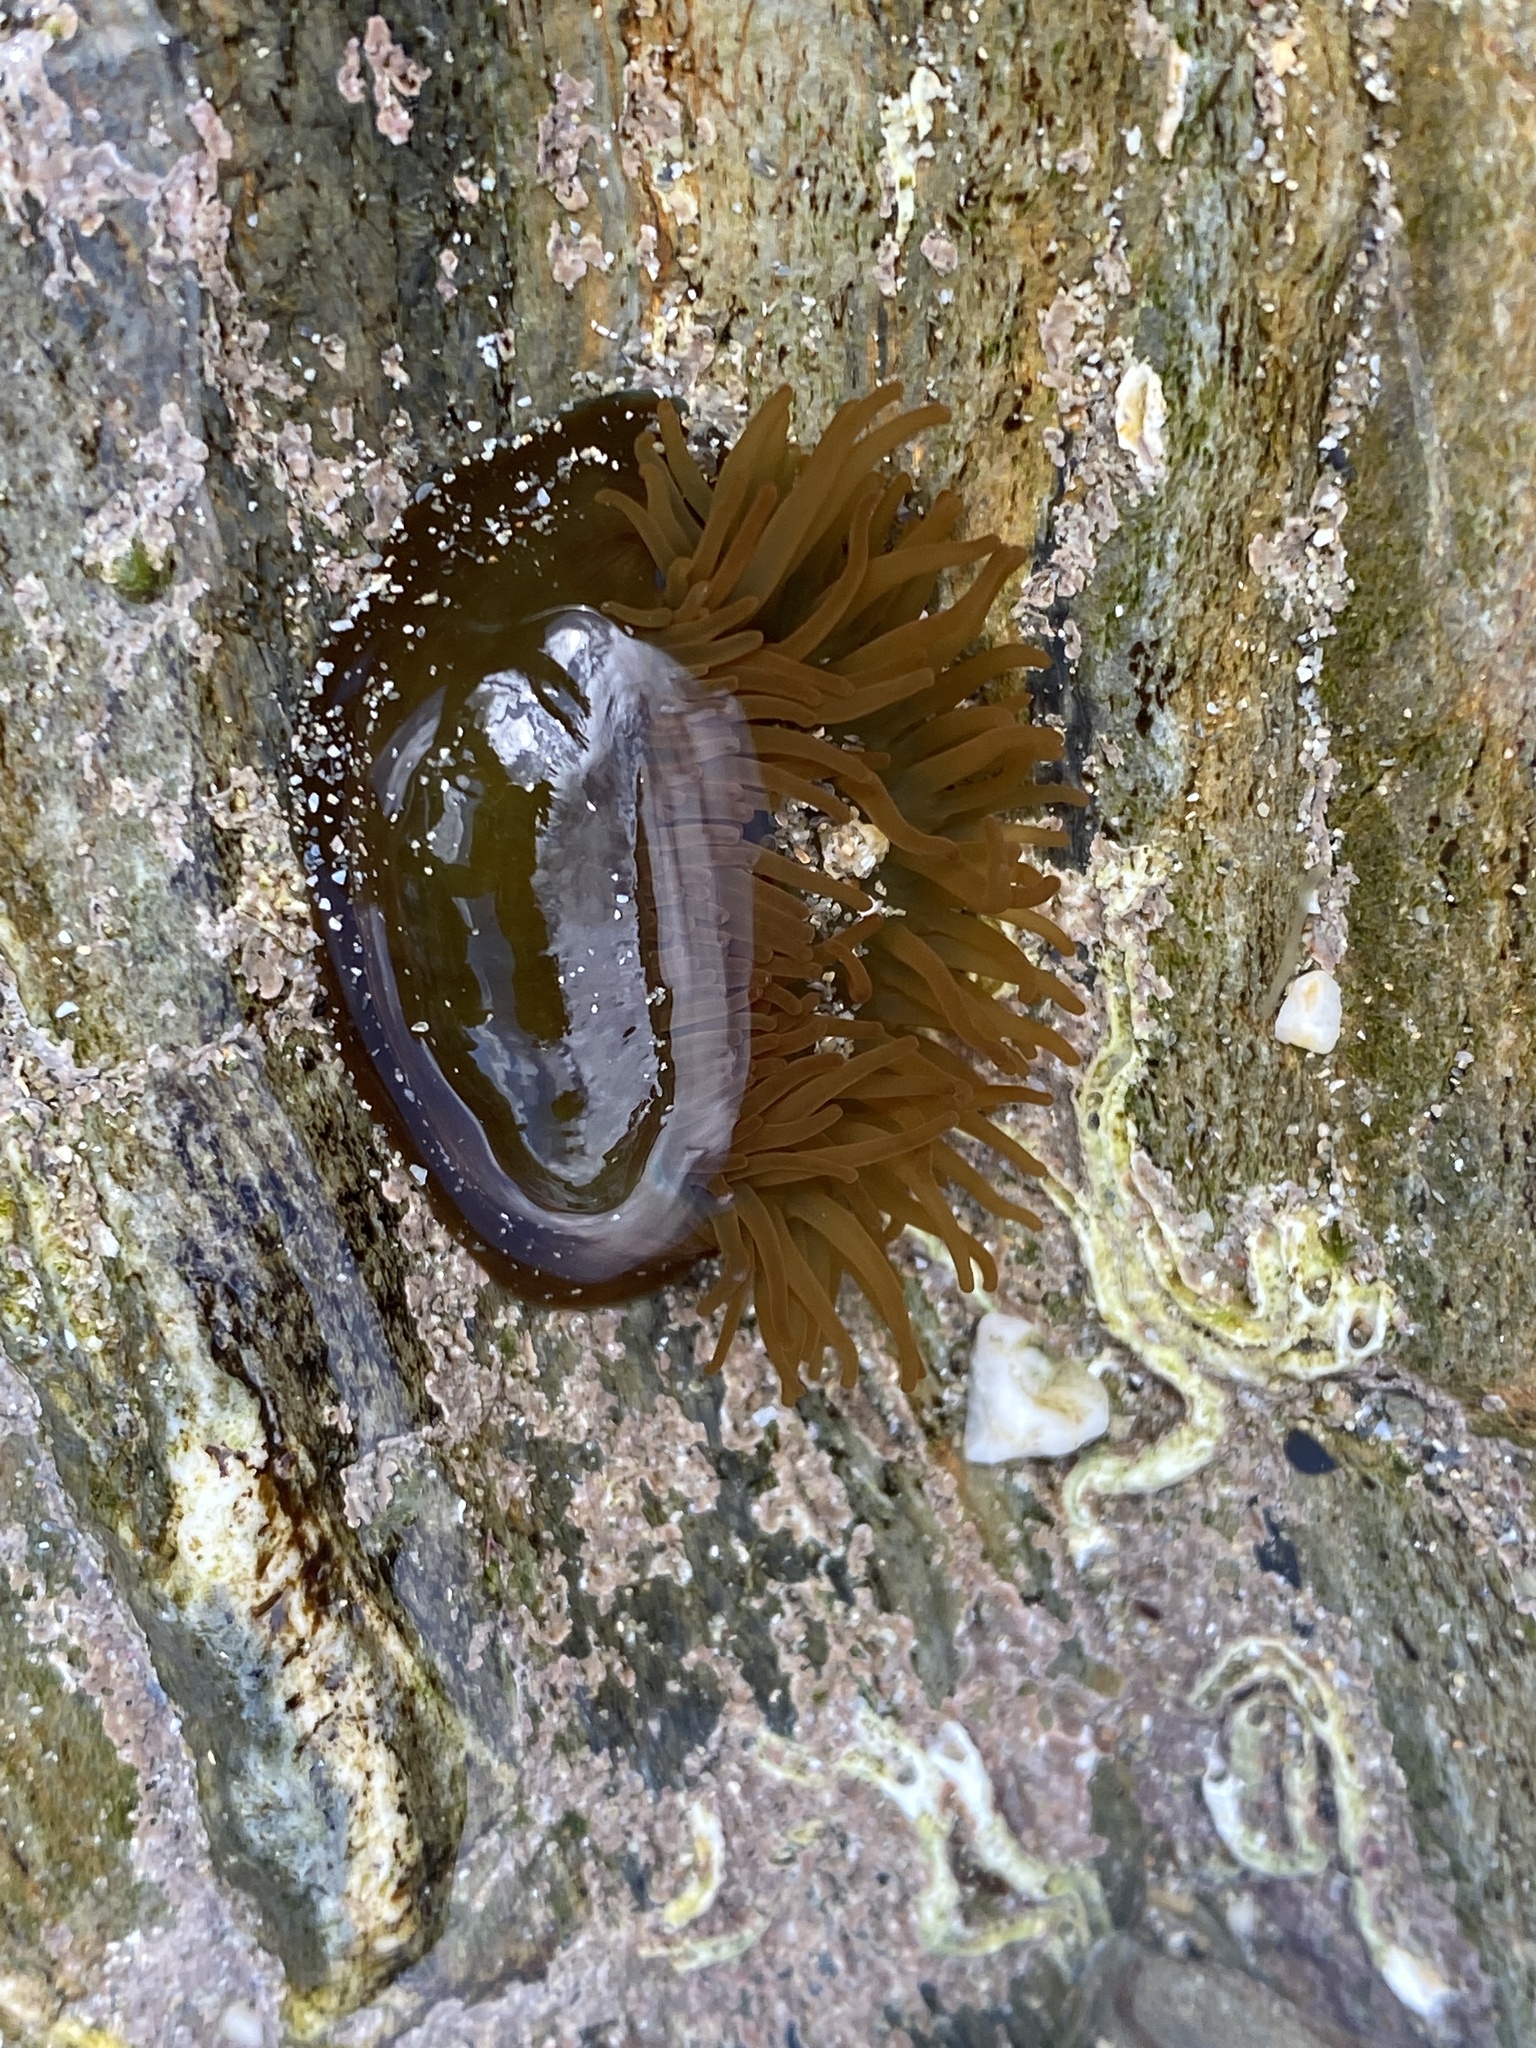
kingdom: Animalia
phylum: Cnidaria
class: Anthozoa
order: Actiniaria
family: Actiniidae
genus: Actinia
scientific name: Actinia equina
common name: Beadlet anemone
